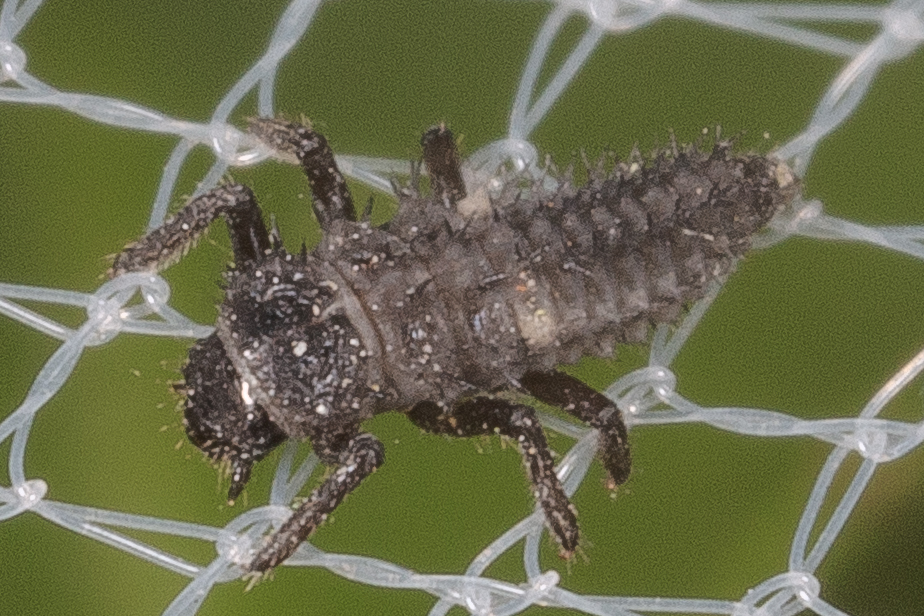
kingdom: Animalia
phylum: Arthropoda
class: Insecta
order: Coleoptera
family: Coccinellidae
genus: Harmonia
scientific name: Harmonia axyridis
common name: Harlequin ladybird
